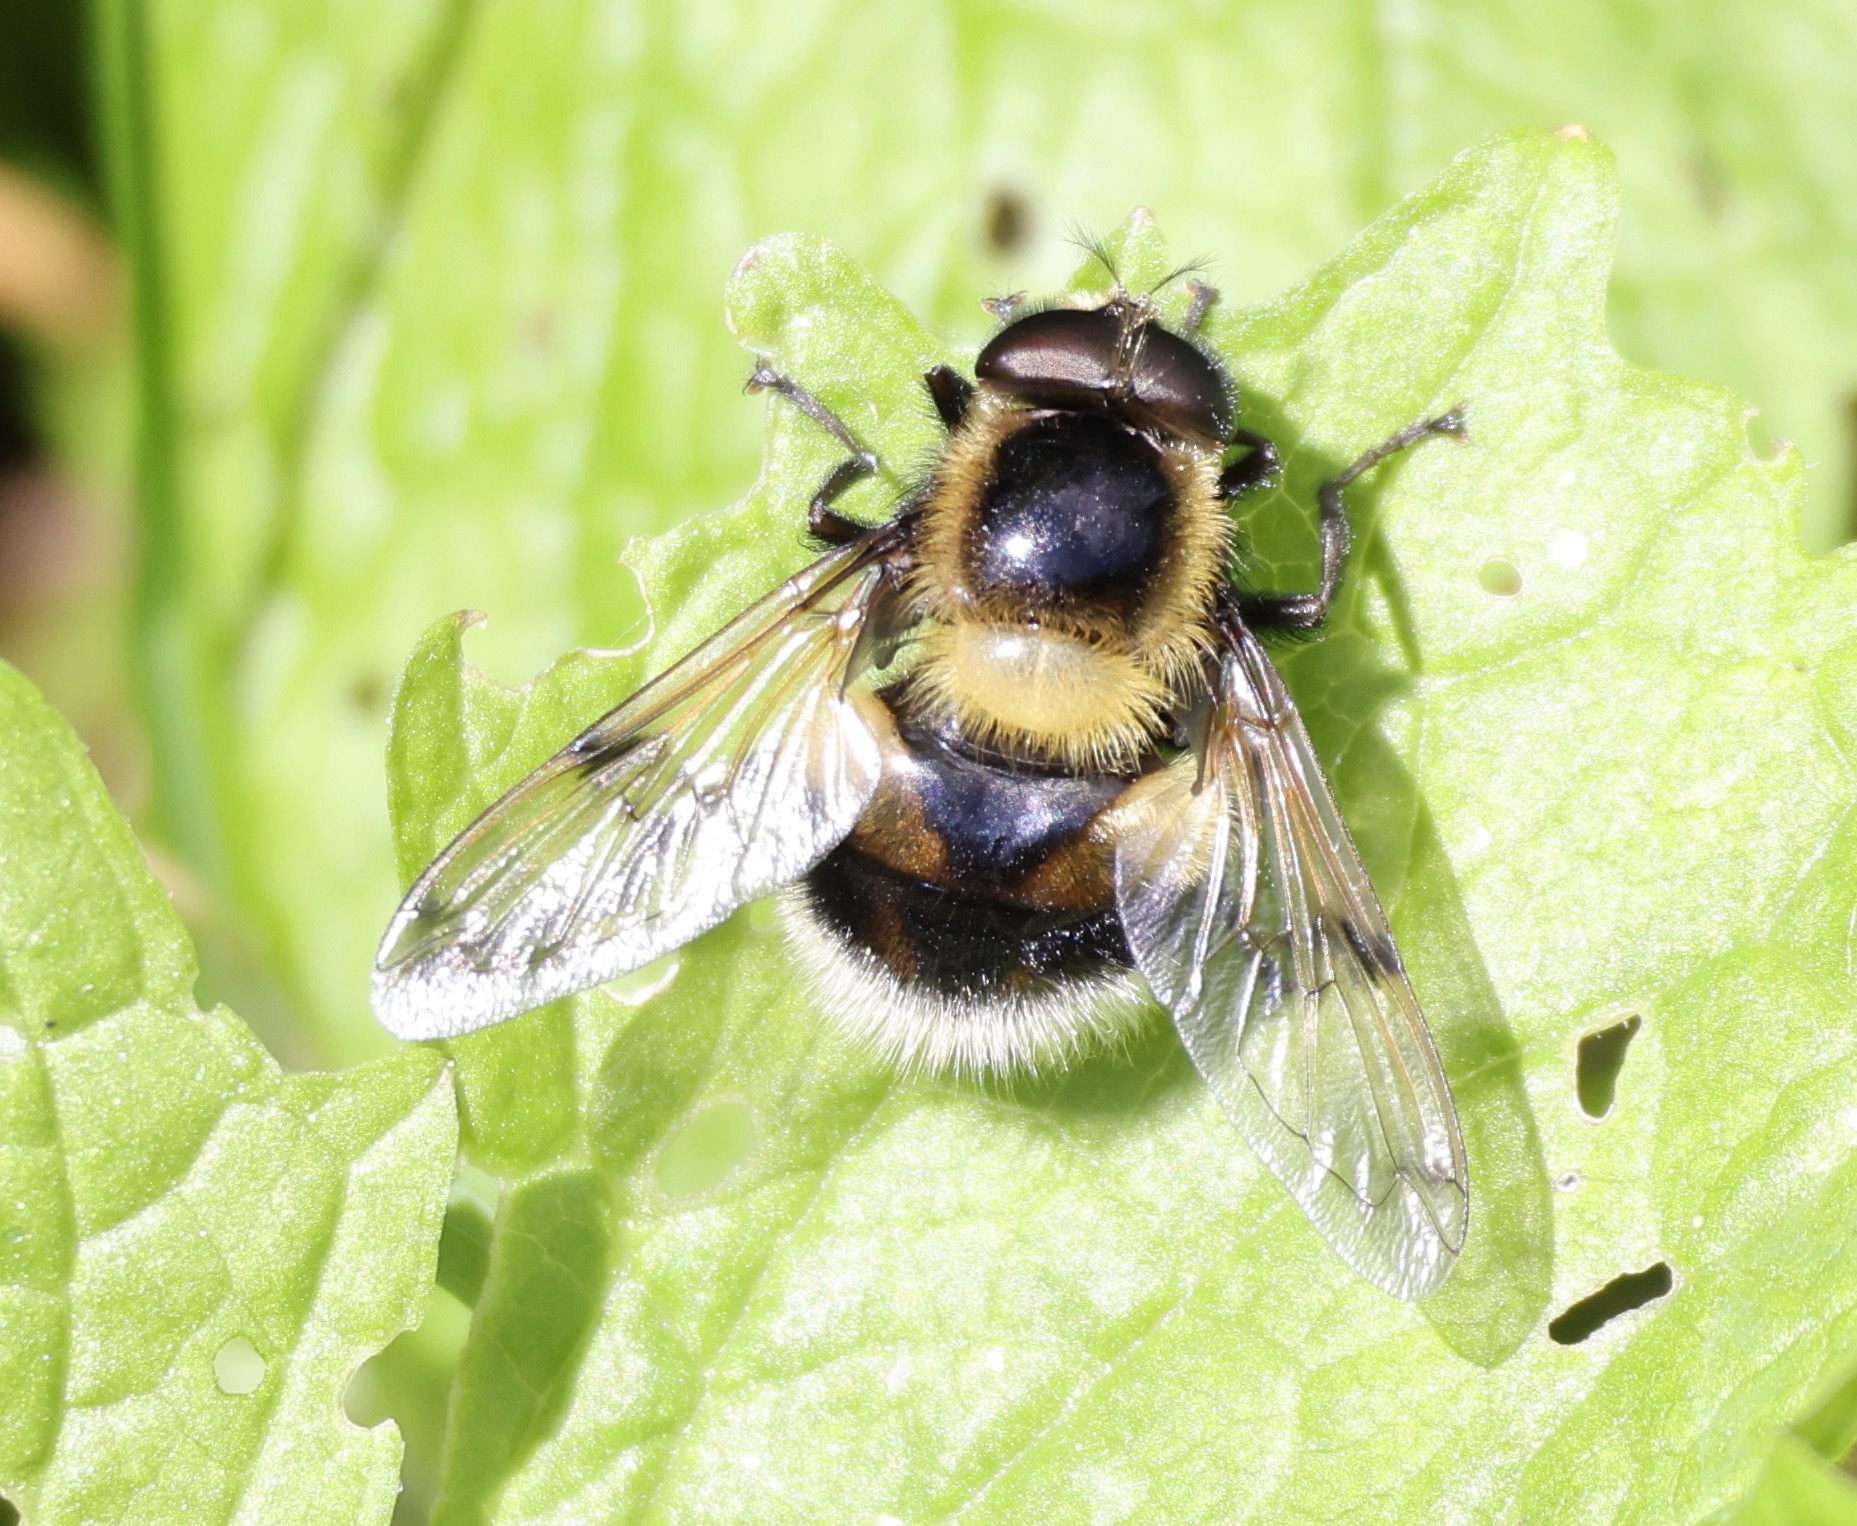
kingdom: Animalia
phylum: Arthropoda
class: Insecta
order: Diptera
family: Syrphidae
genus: Volucella
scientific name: Volucella bombylans
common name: Bumble bee hover fly
